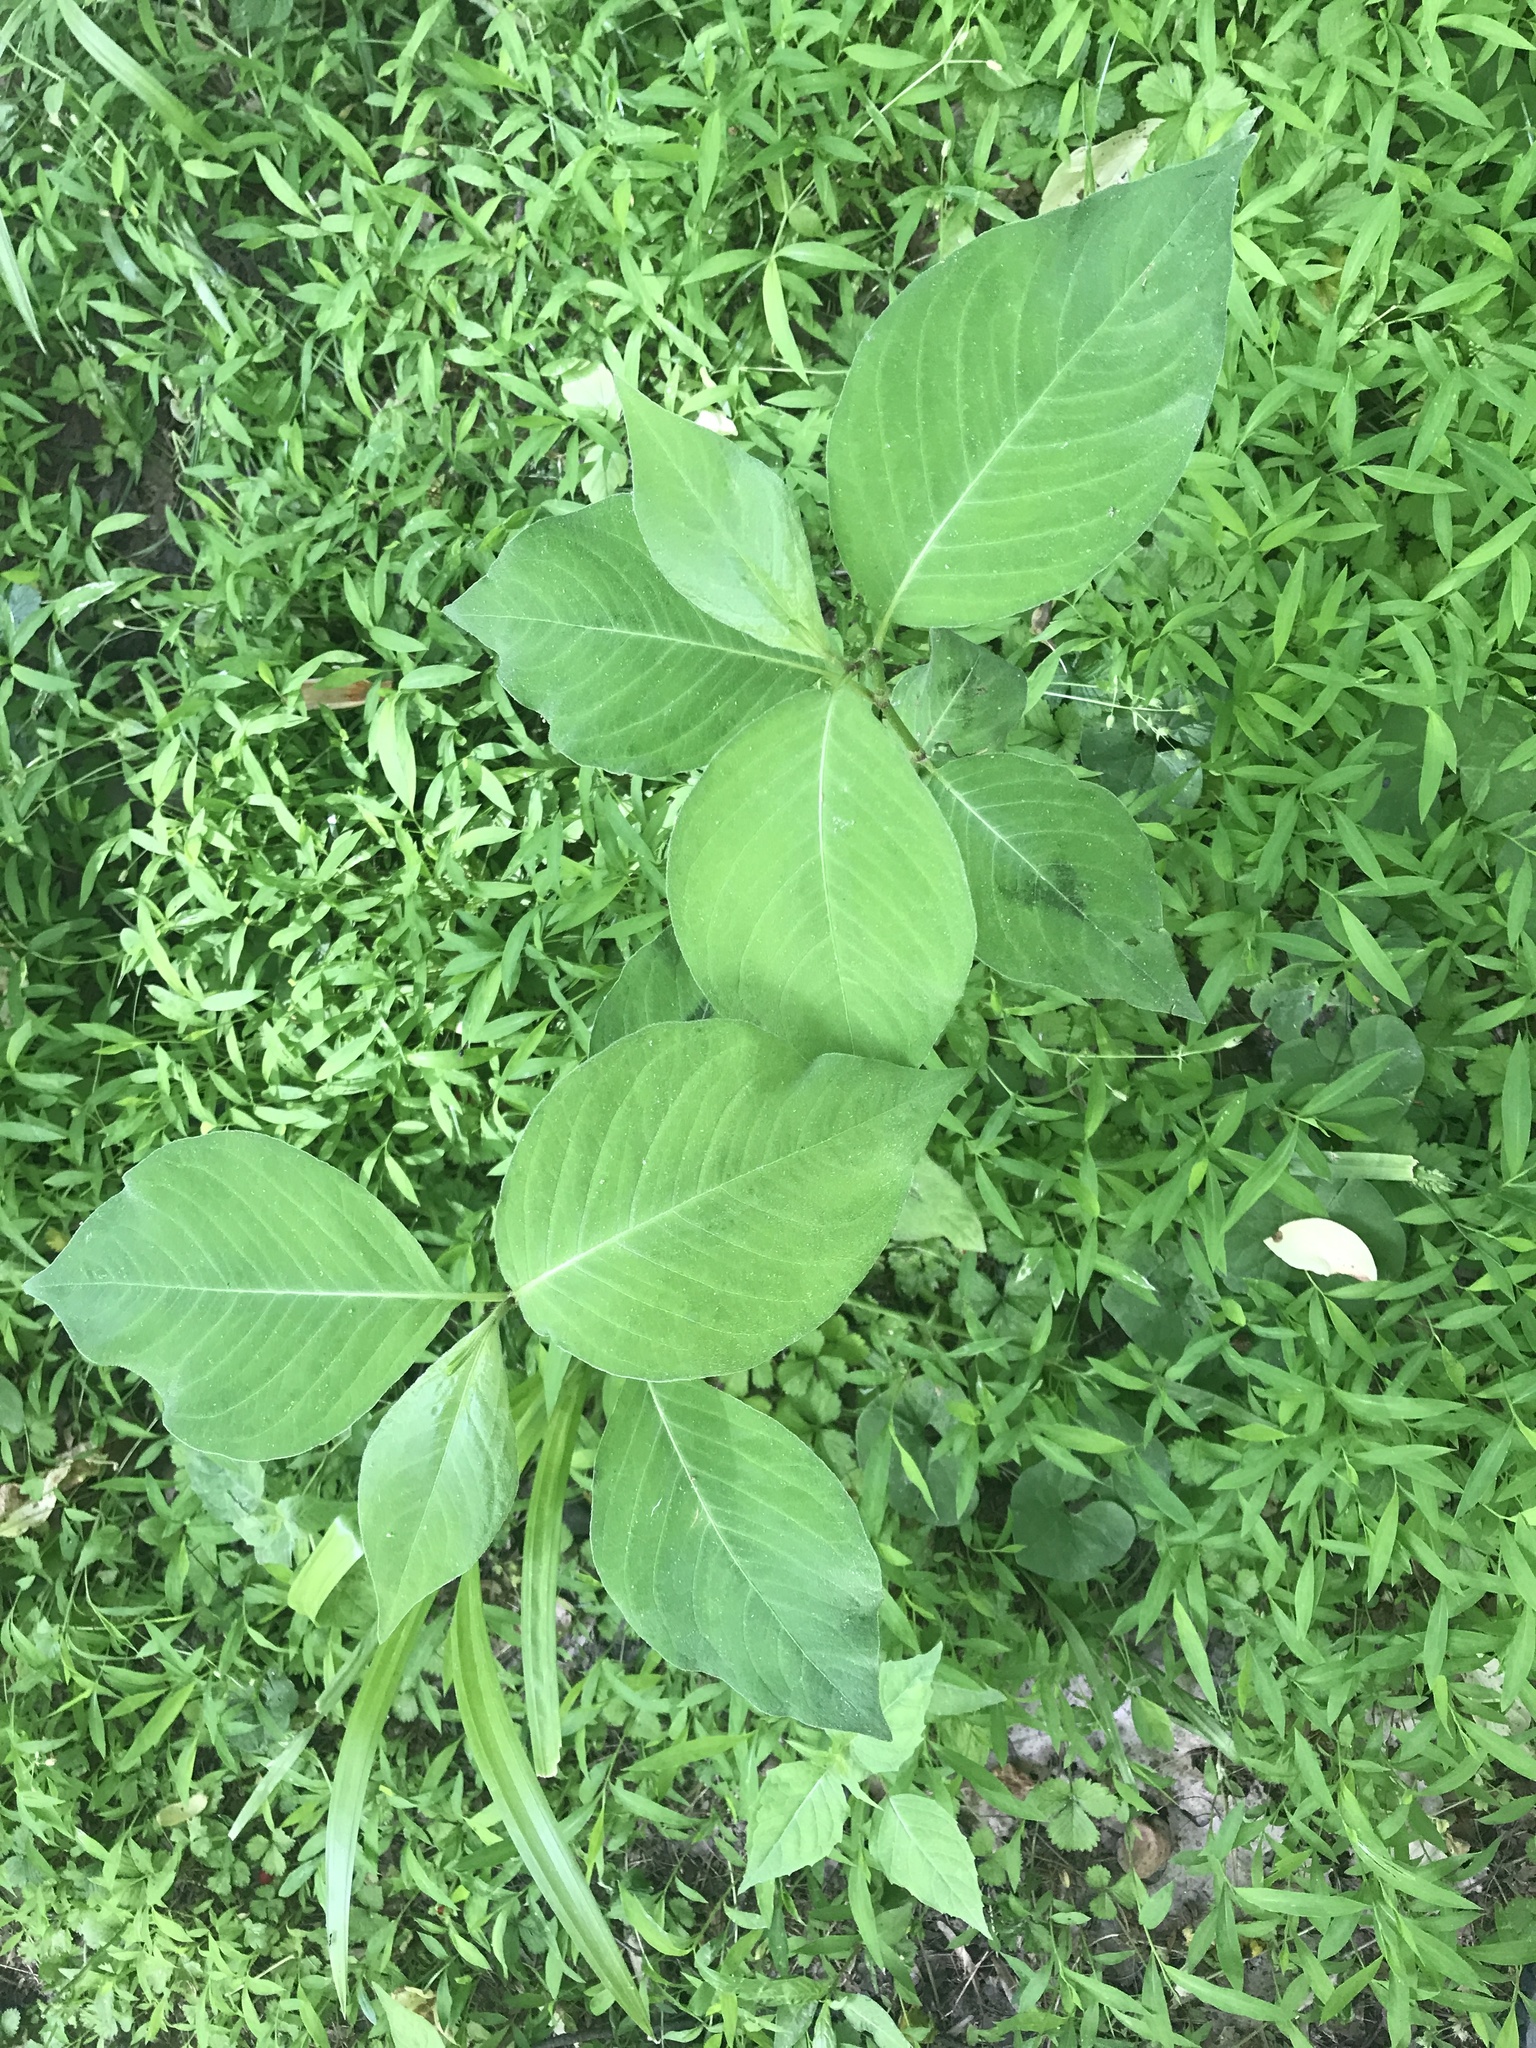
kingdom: Plantae
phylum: Tracheophyta
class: Magnoliopsida
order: Caryophyllales
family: Polygonaceae
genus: Persicaria
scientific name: Persicaria virginiana
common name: Jumpseed
